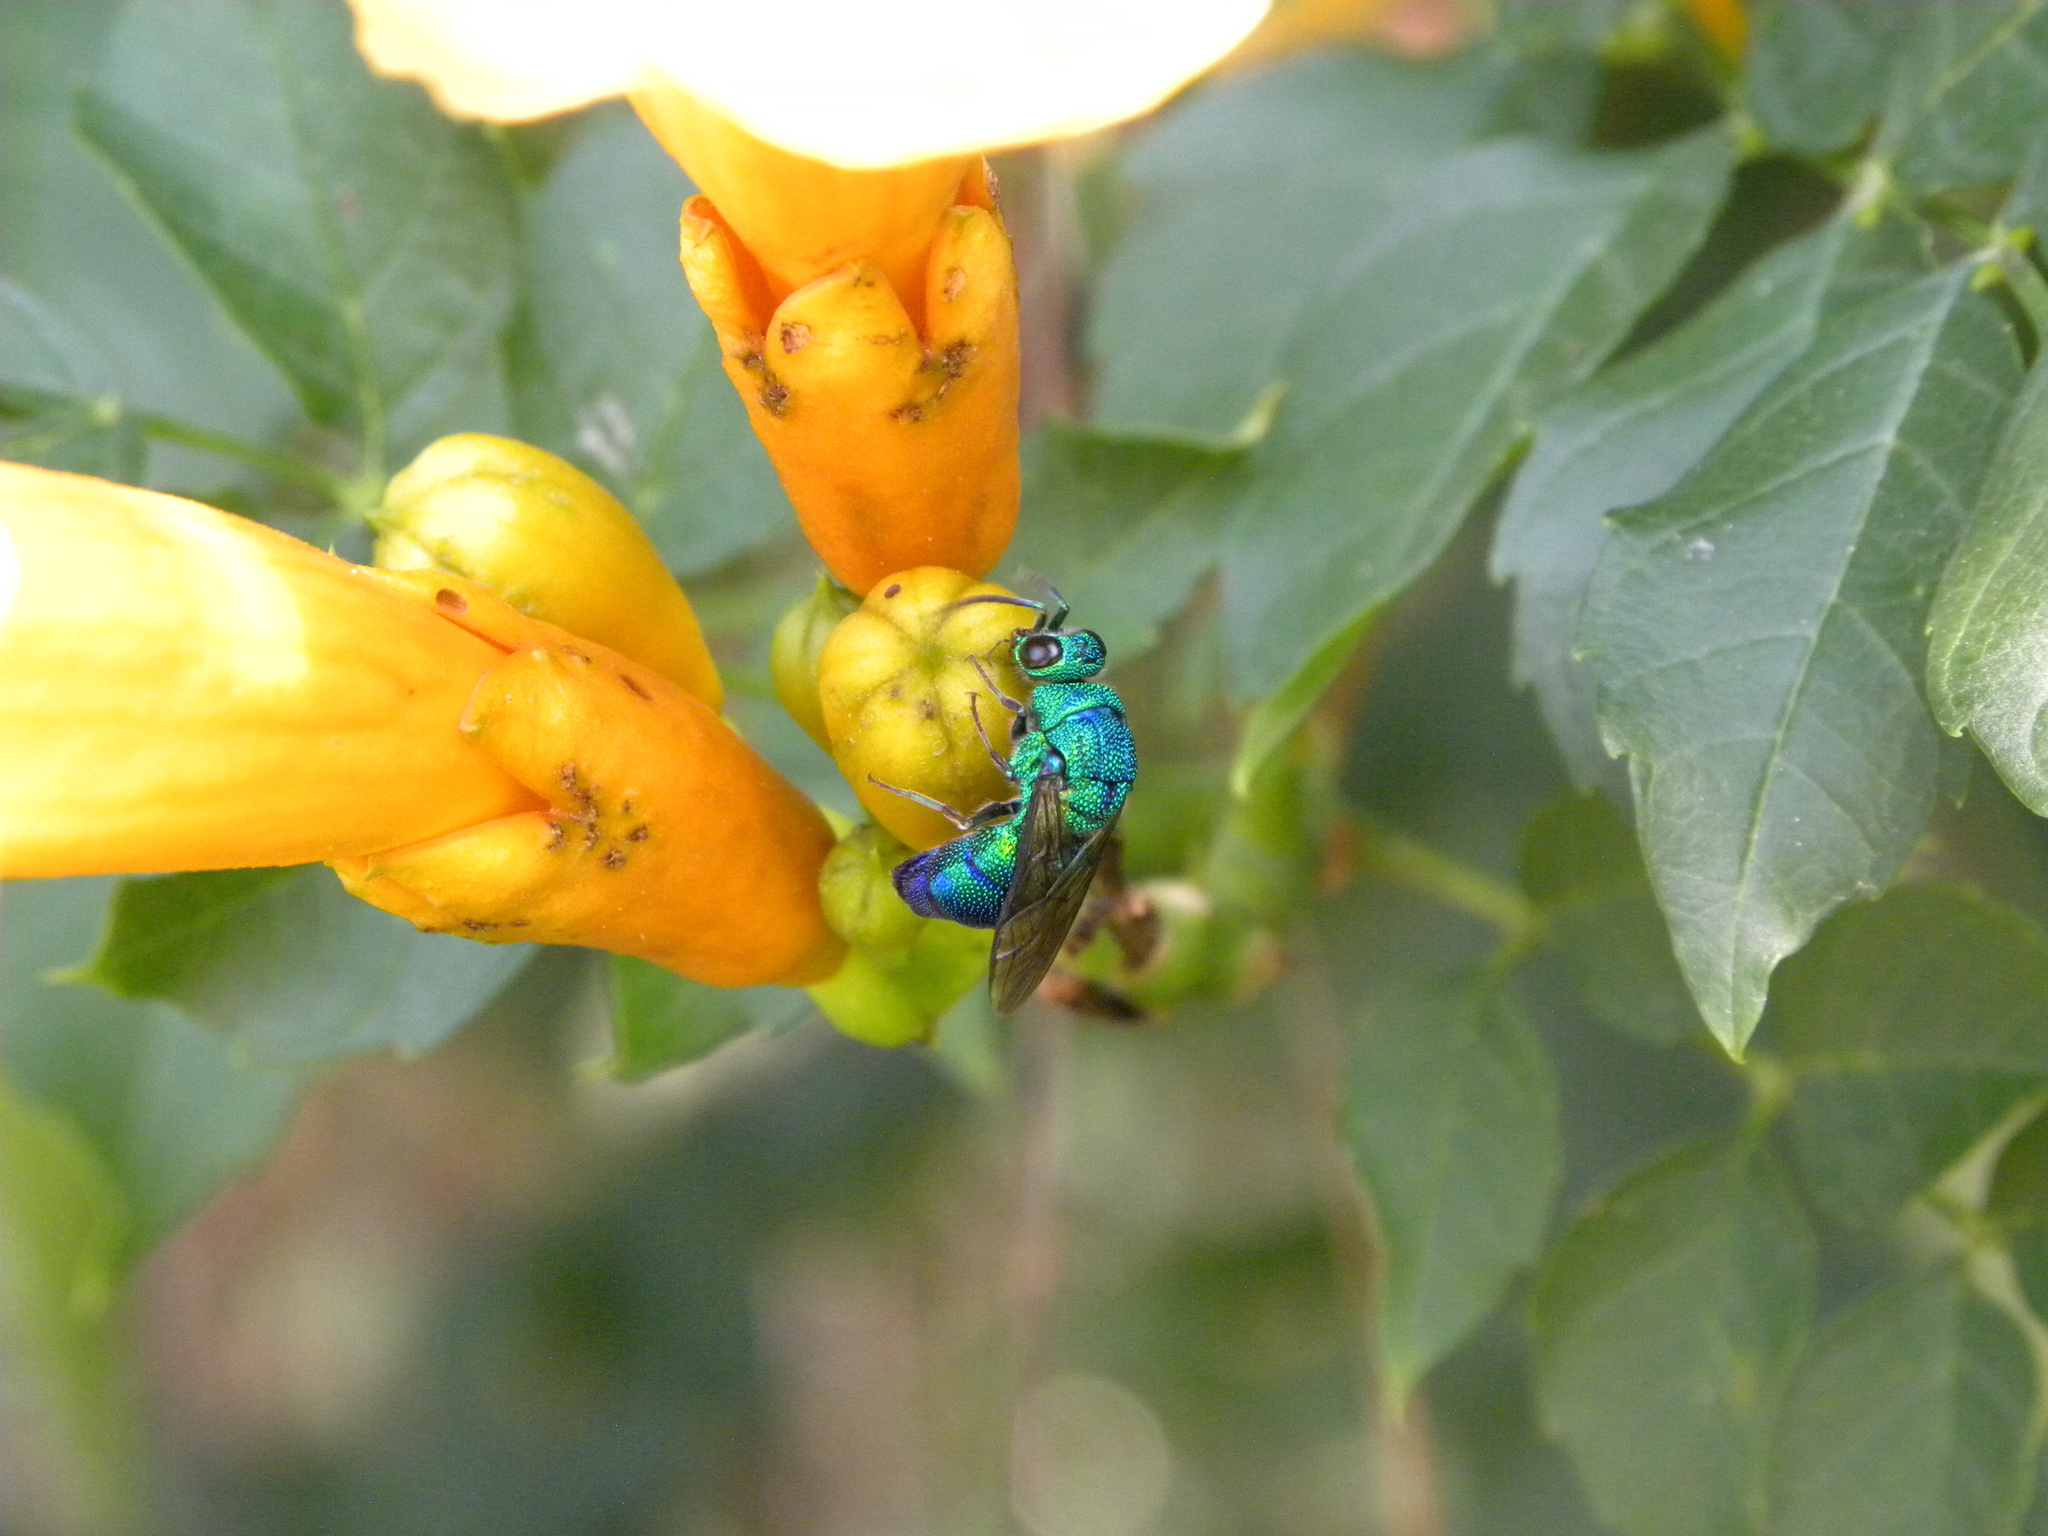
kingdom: Animalia
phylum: Arthropoda
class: Insecta
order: Hymenoptera
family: Chrysididae
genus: Chrysis
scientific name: Chrysis smaragdula
